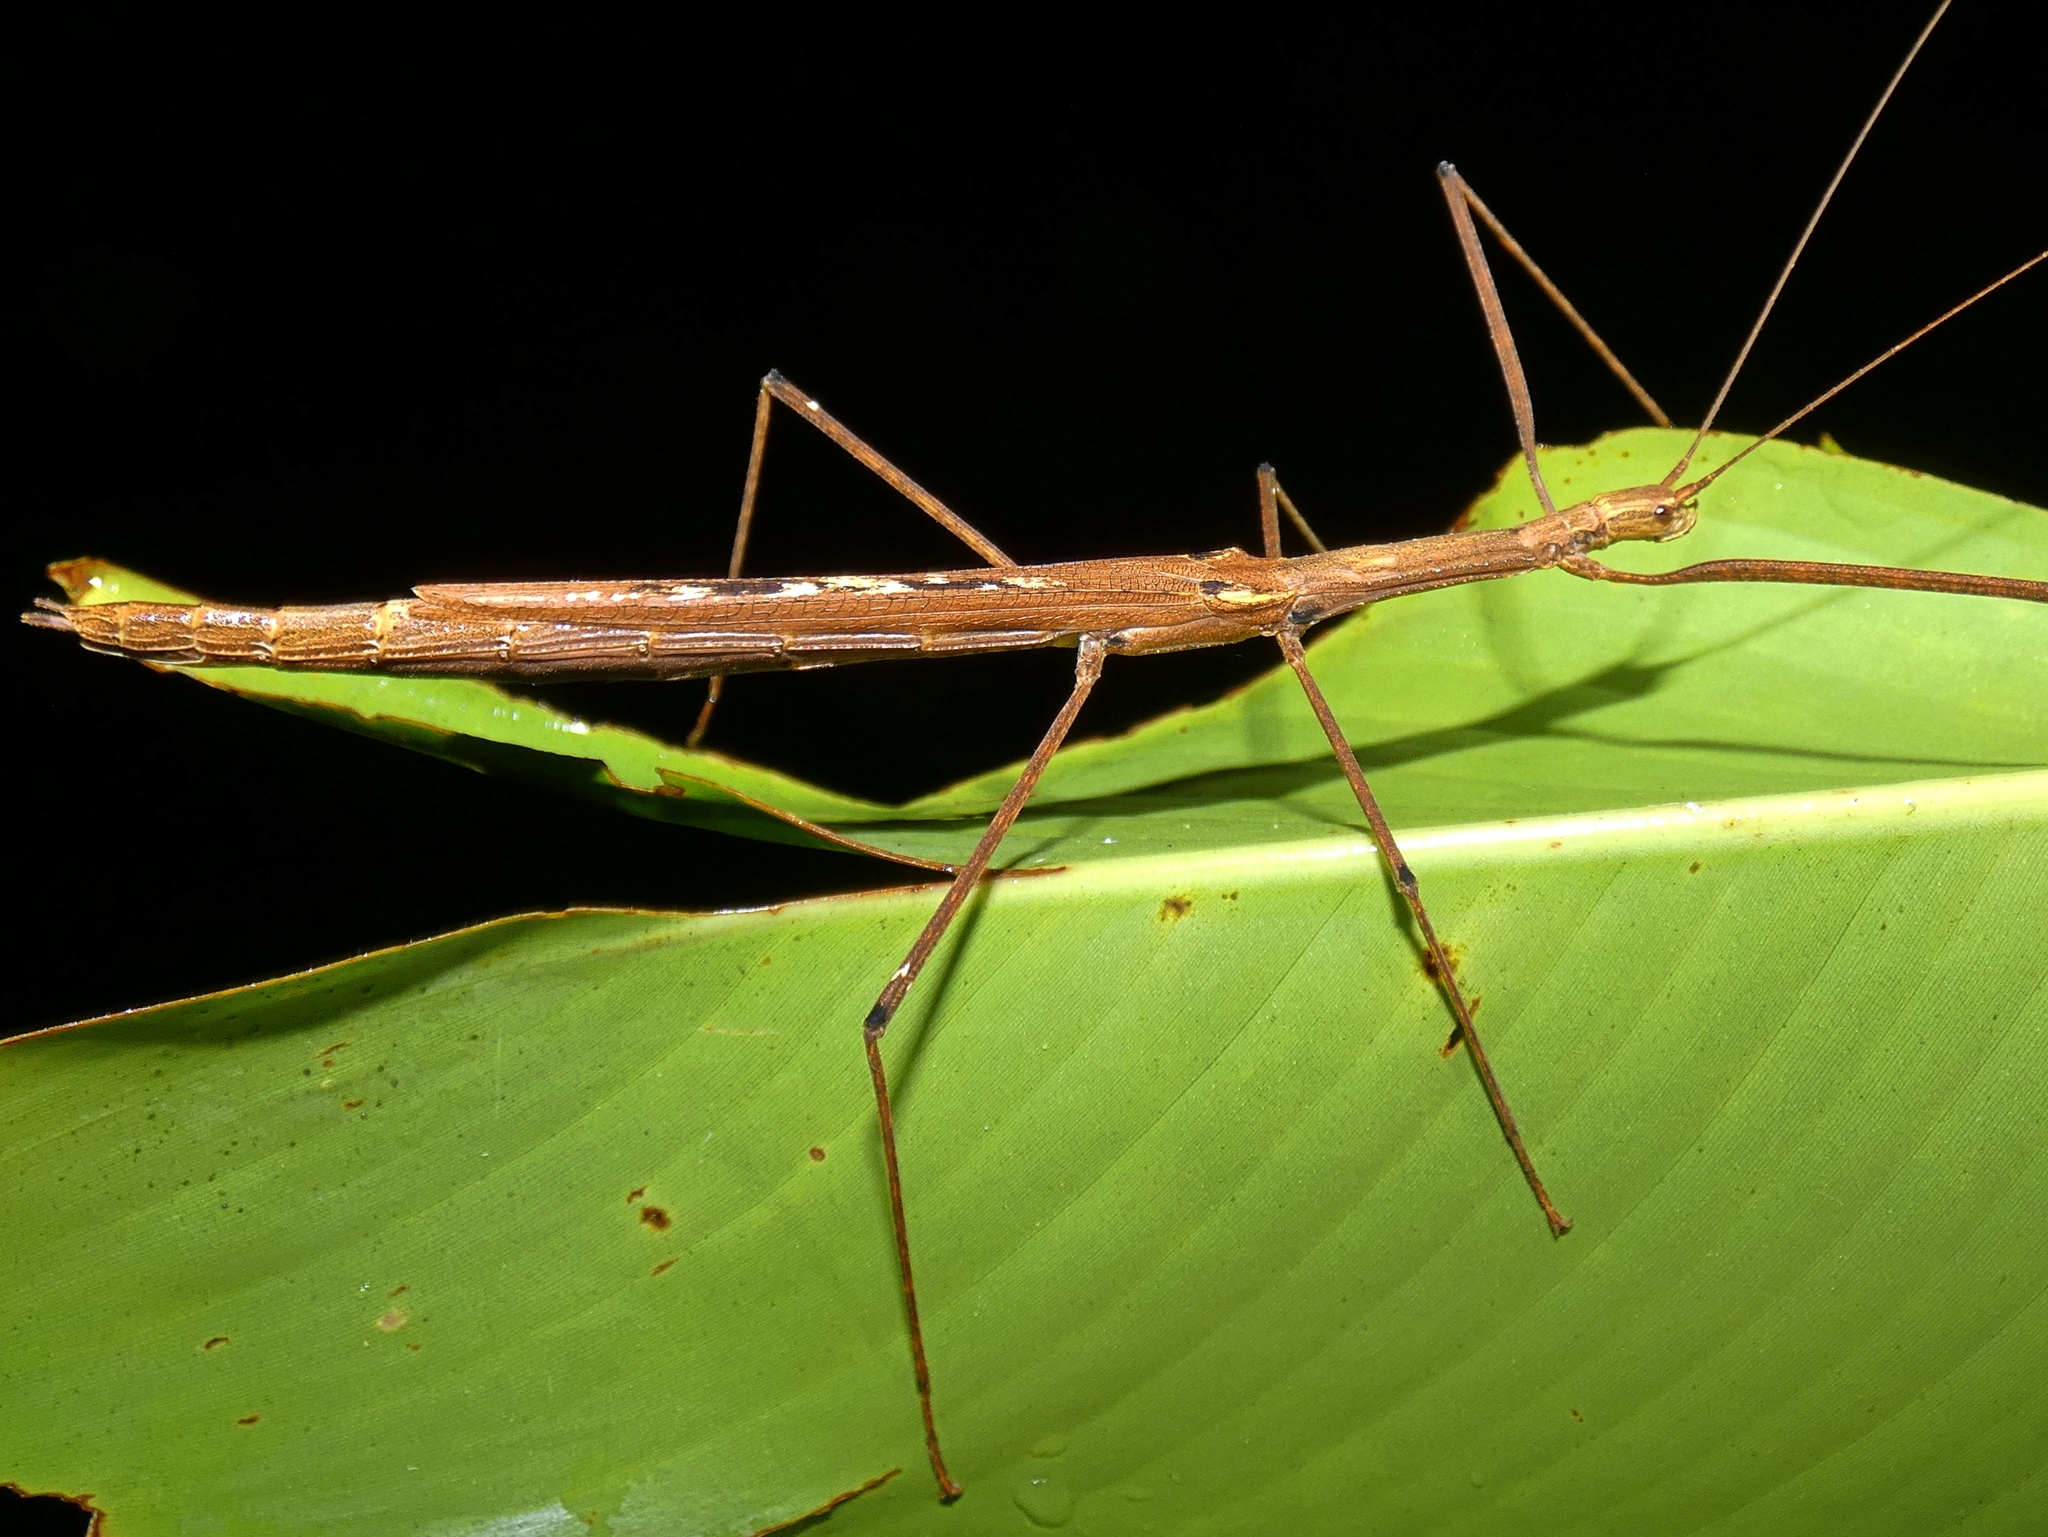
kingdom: Animalia
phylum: Arthropoda
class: Insecta
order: Phasmida
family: Lonchodidae
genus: Sipyloidea
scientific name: Sipyloidea larryi
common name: Hurricane larry stick-insect
